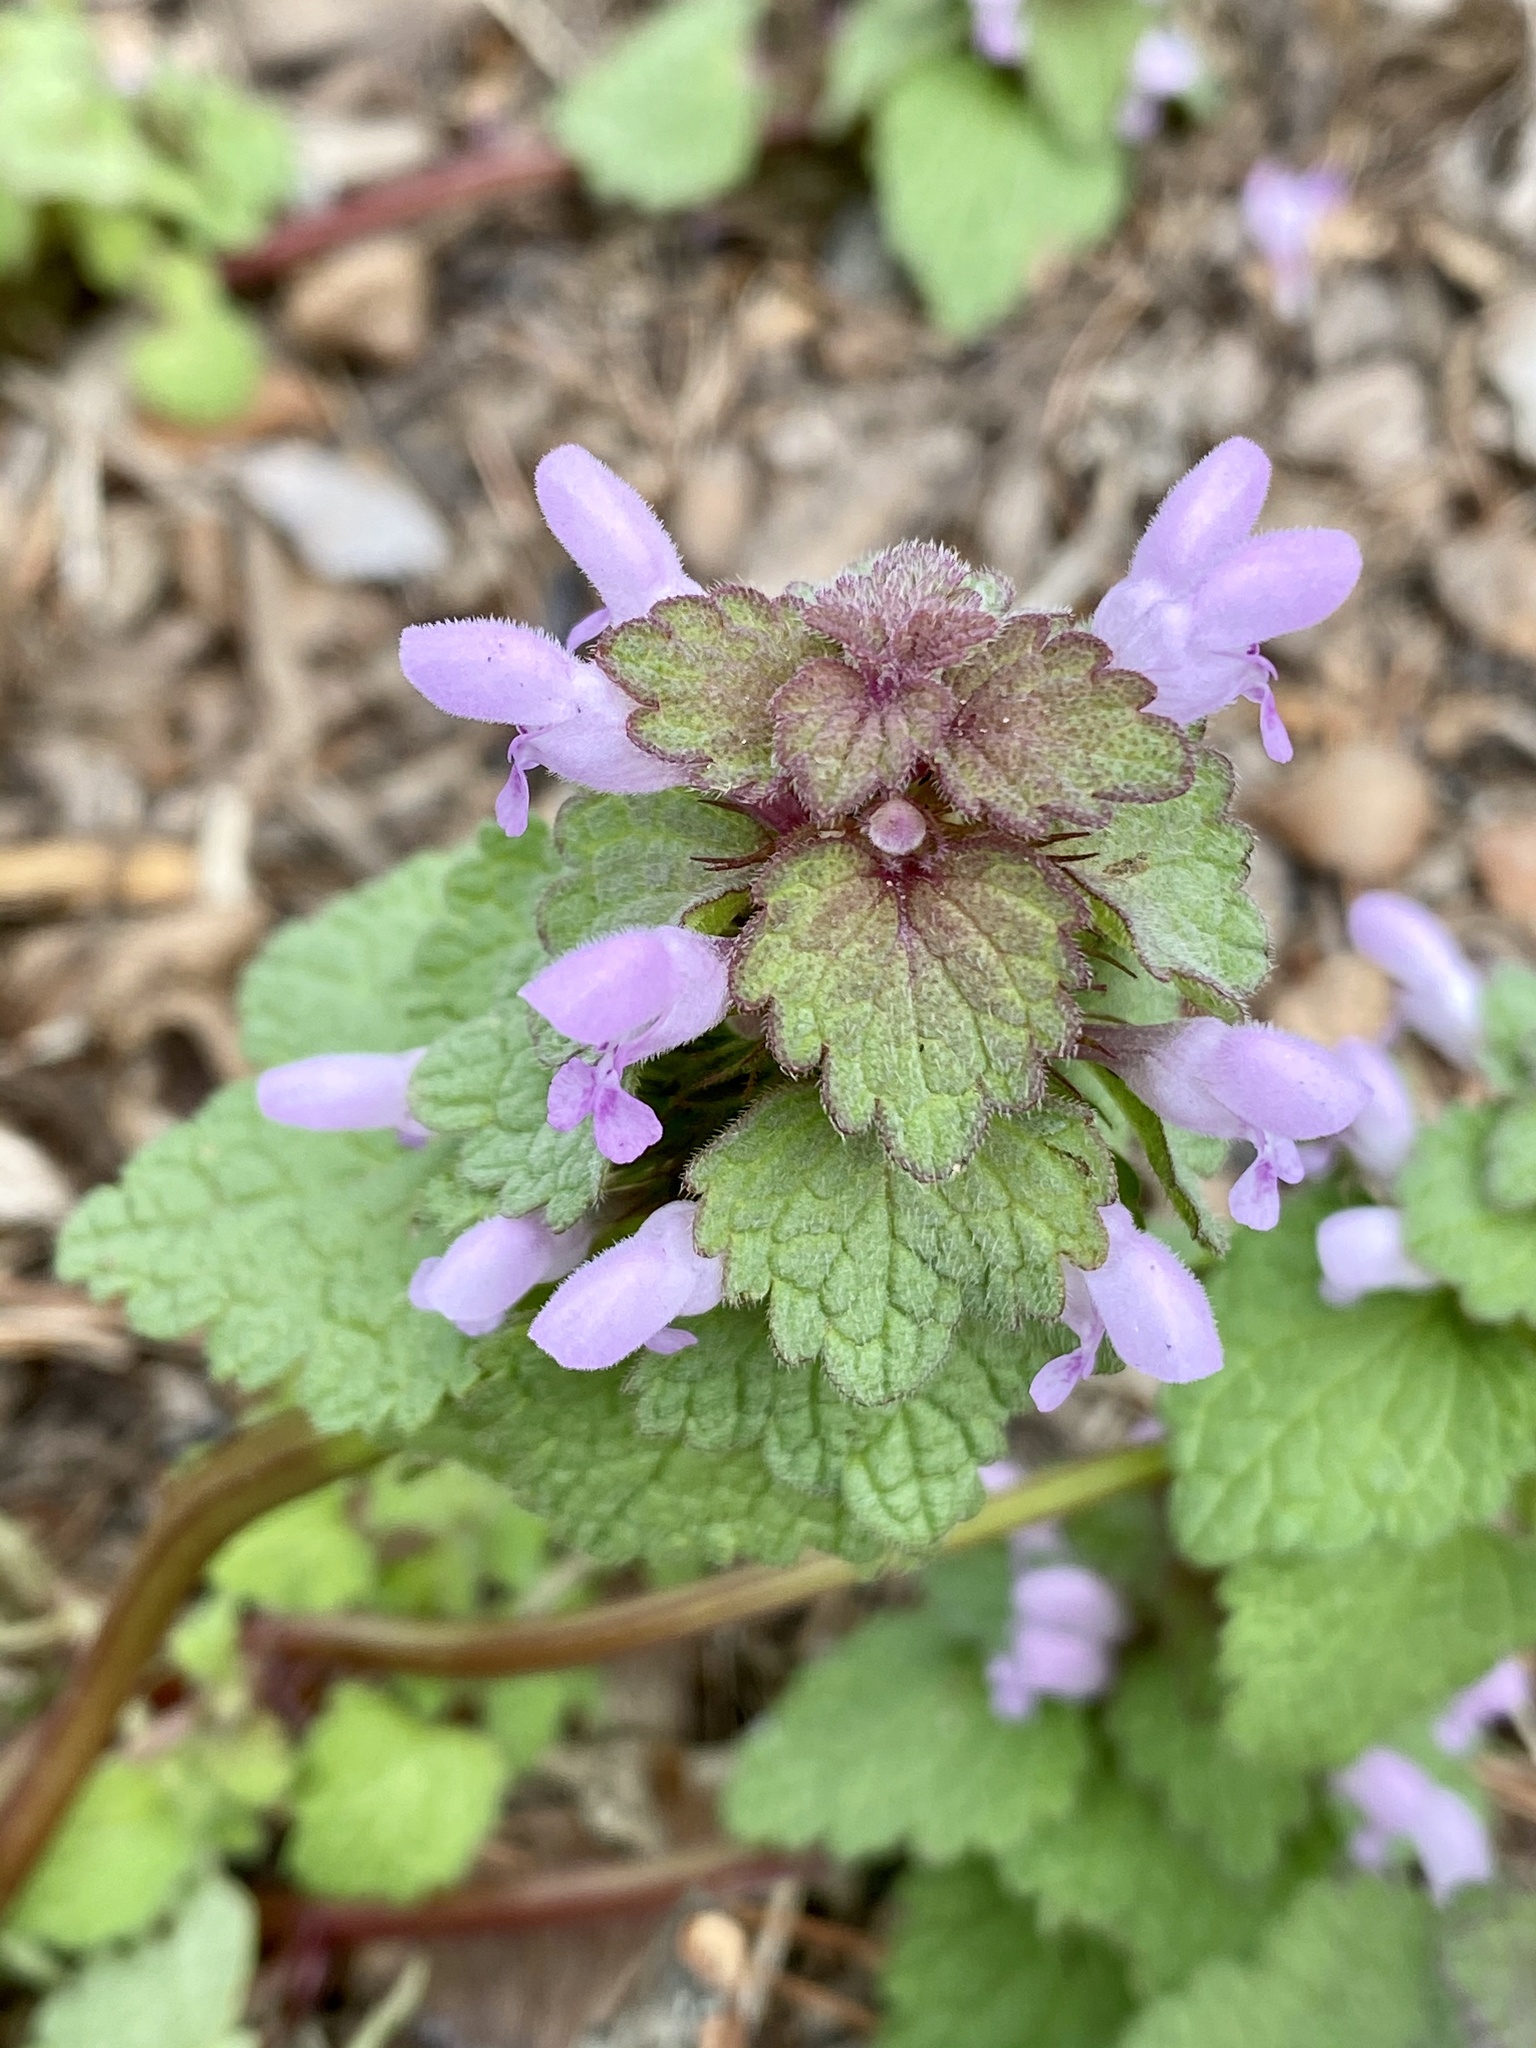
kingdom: Plantae
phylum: Tracheophyta
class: Magnoliopsida
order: Lamiales
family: Lamiaceae
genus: Lamium
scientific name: Lamium purpureum
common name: Red dead-nettle
